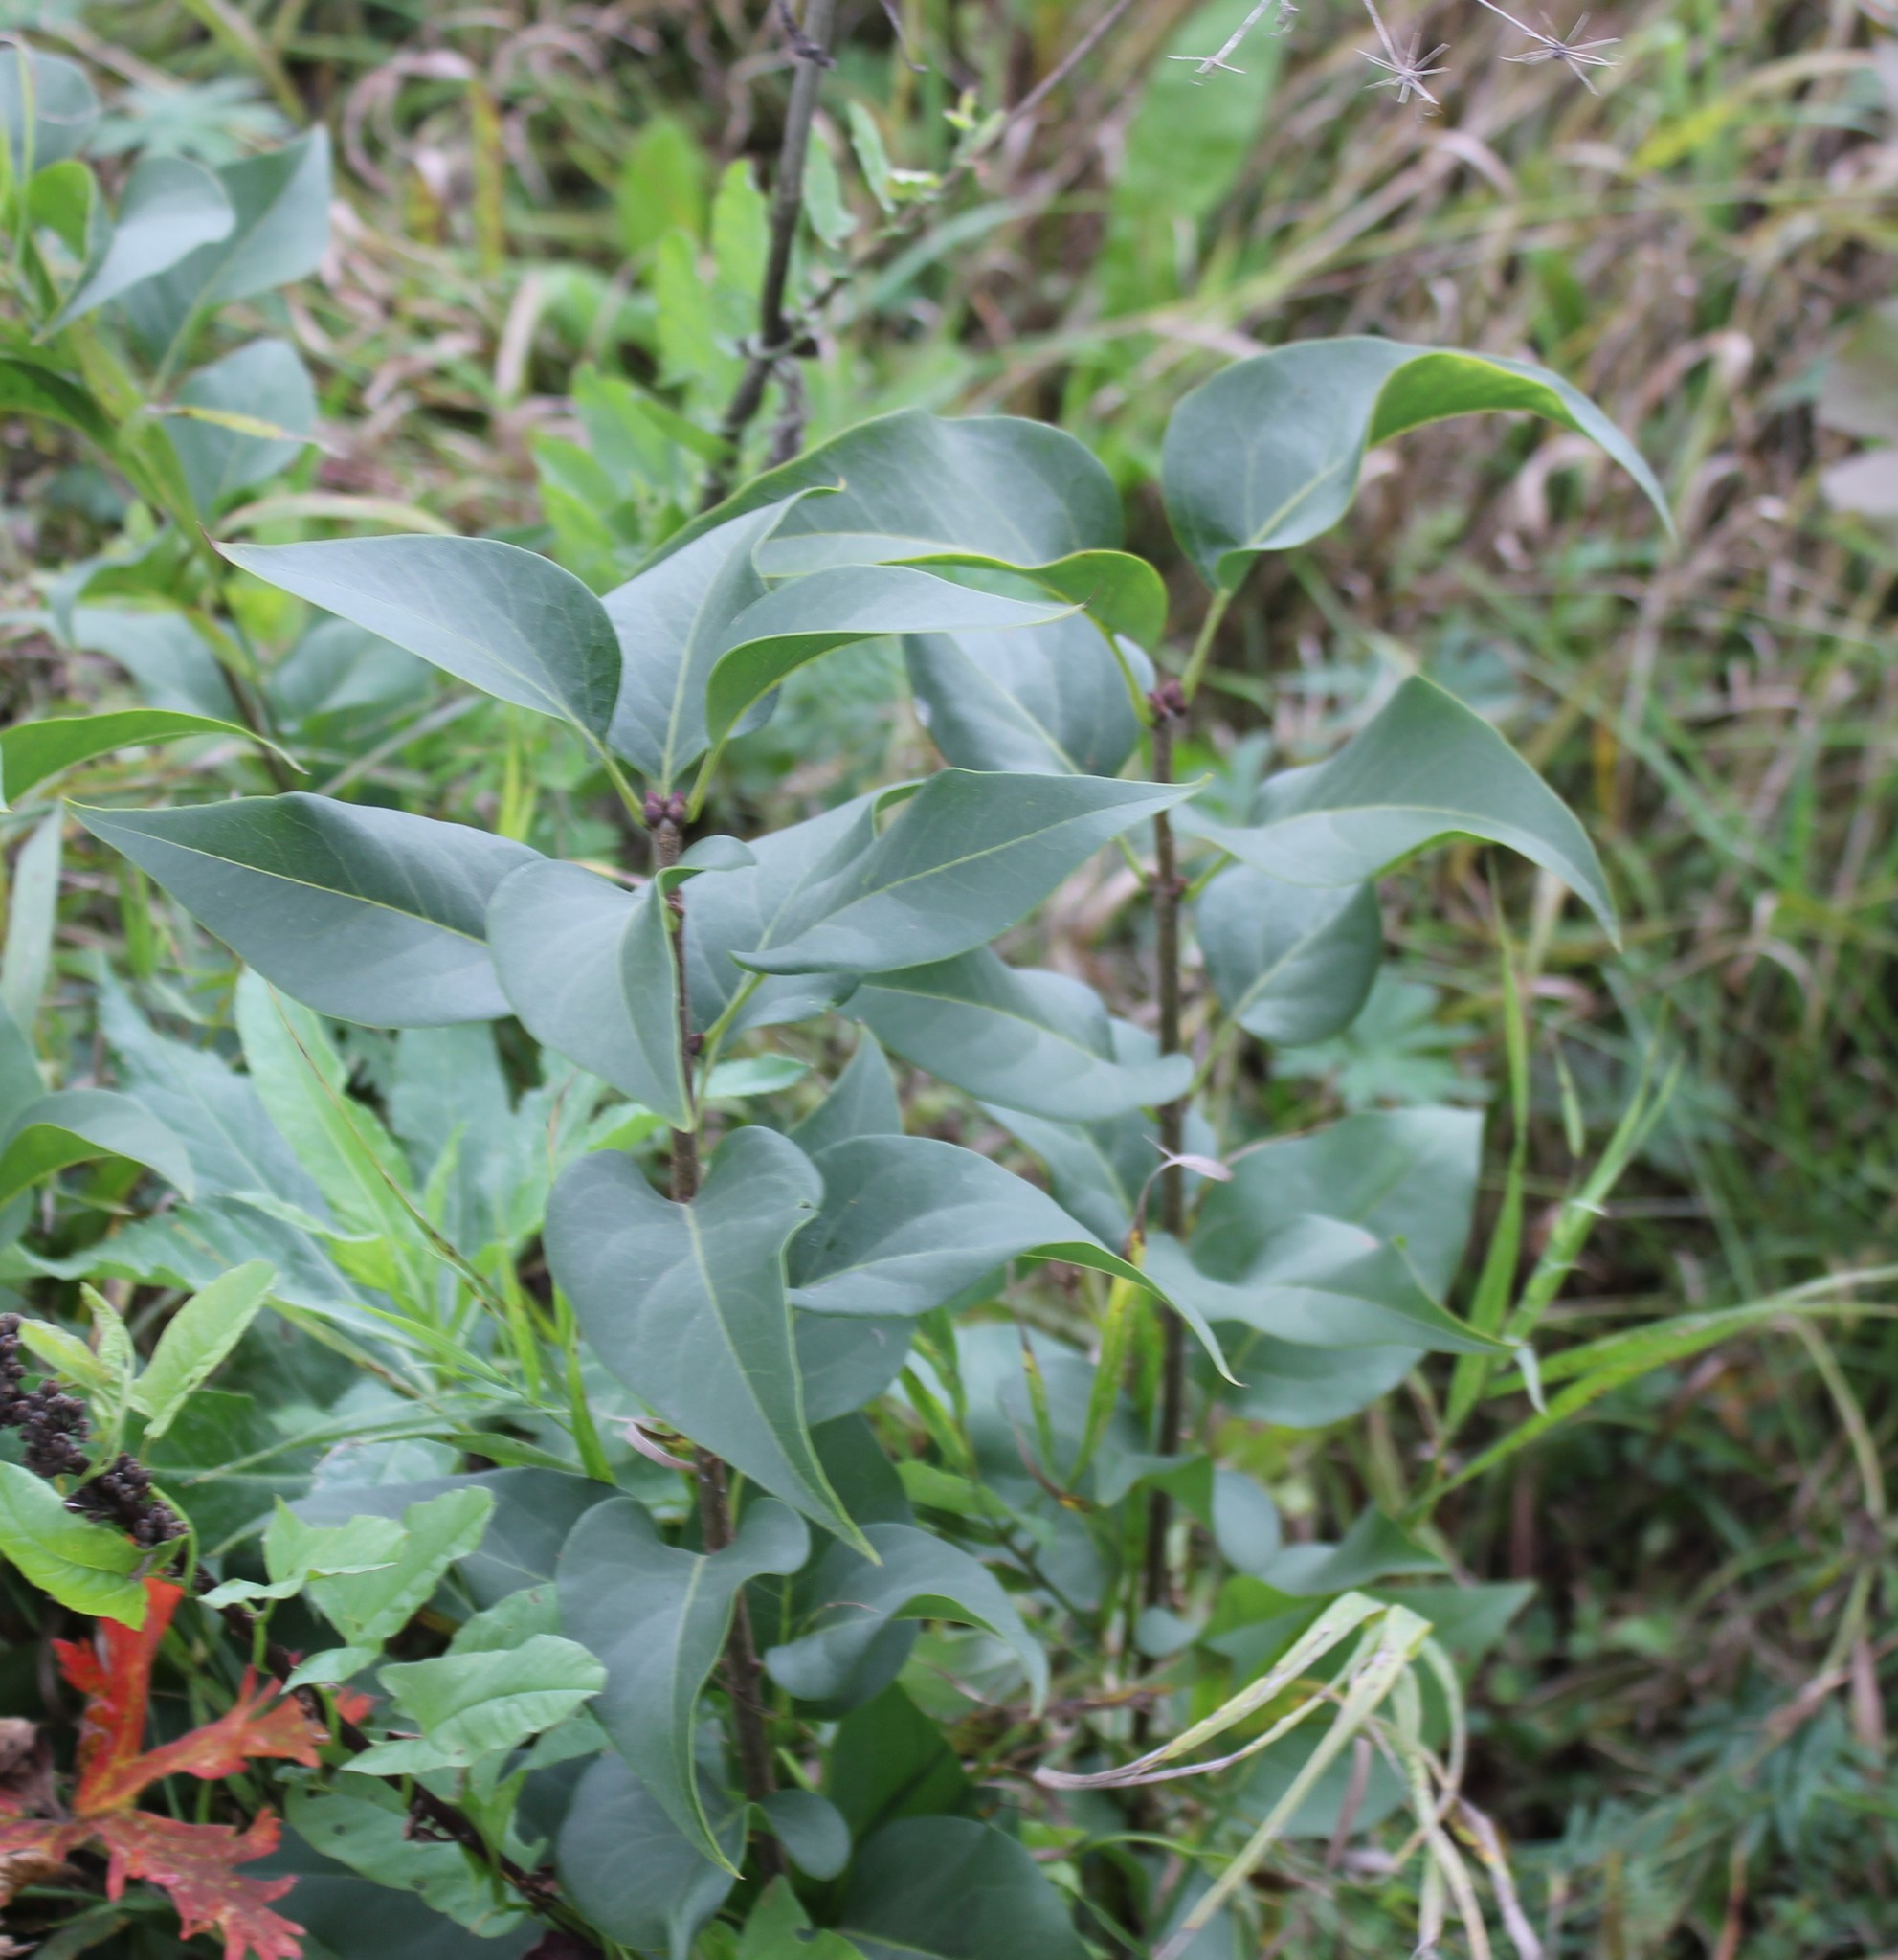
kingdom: Plantae
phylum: Tracheophyta
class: Magnoliopsida
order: Lamiales
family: Oleaceae
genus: Syringa
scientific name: Syringa vulgaris
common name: Common lilac
